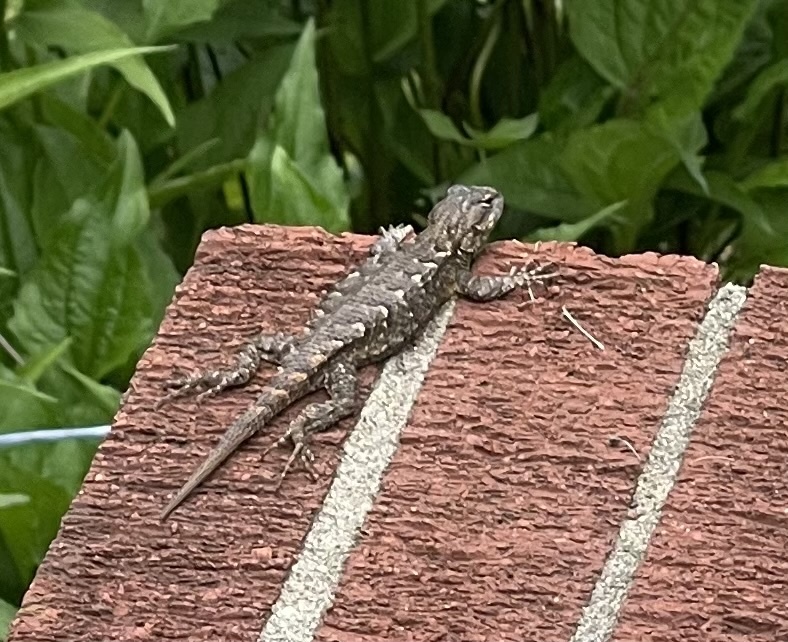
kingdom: Animalia
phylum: Chordata
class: Squamata
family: Phrynosomatidae
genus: Sceloporus
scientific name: Sceloporus undulatus
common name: Eastern fence lizard
